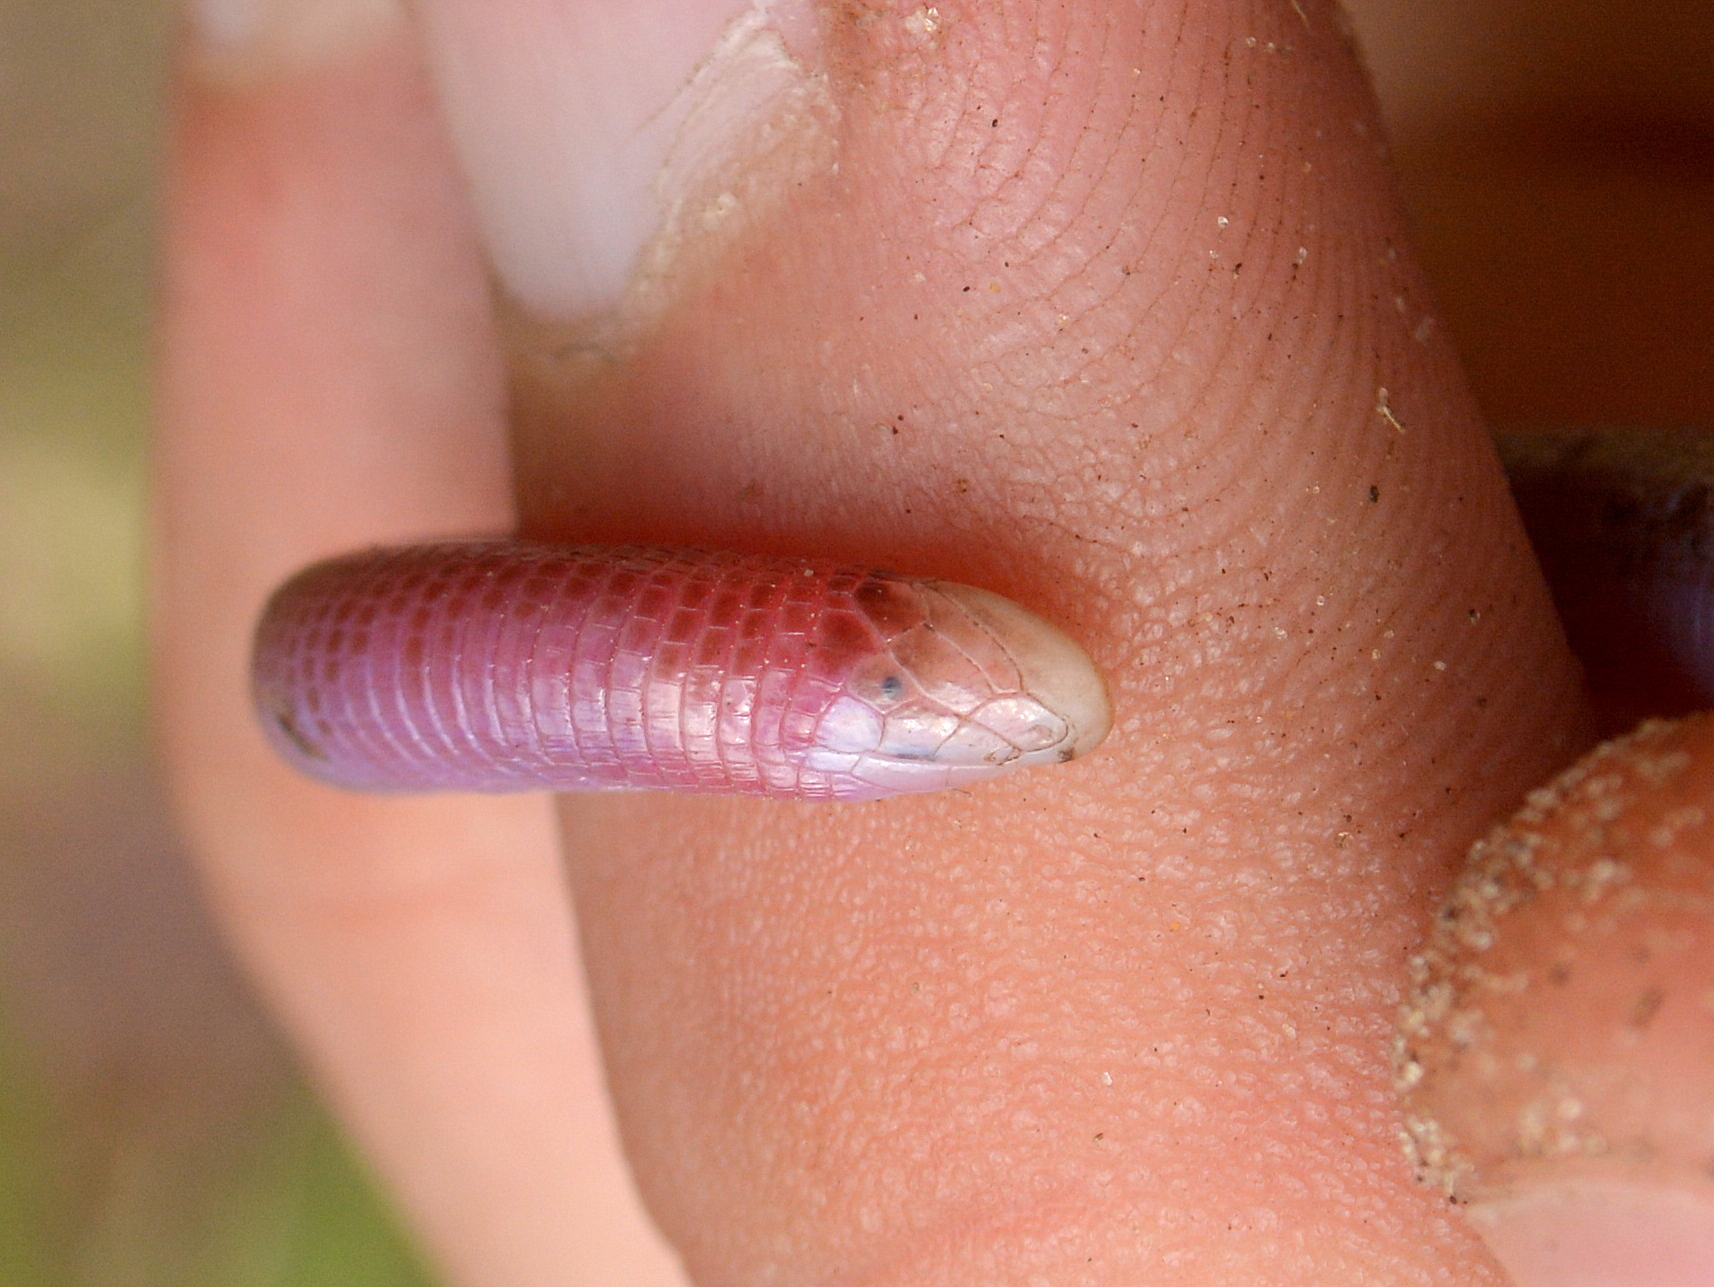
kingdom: Animalia
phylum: Chordata
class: Squamata
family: Amphisbaenidae
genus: Amphisbaena
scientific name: Amphisbaena kingii
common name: King's worm lizard
